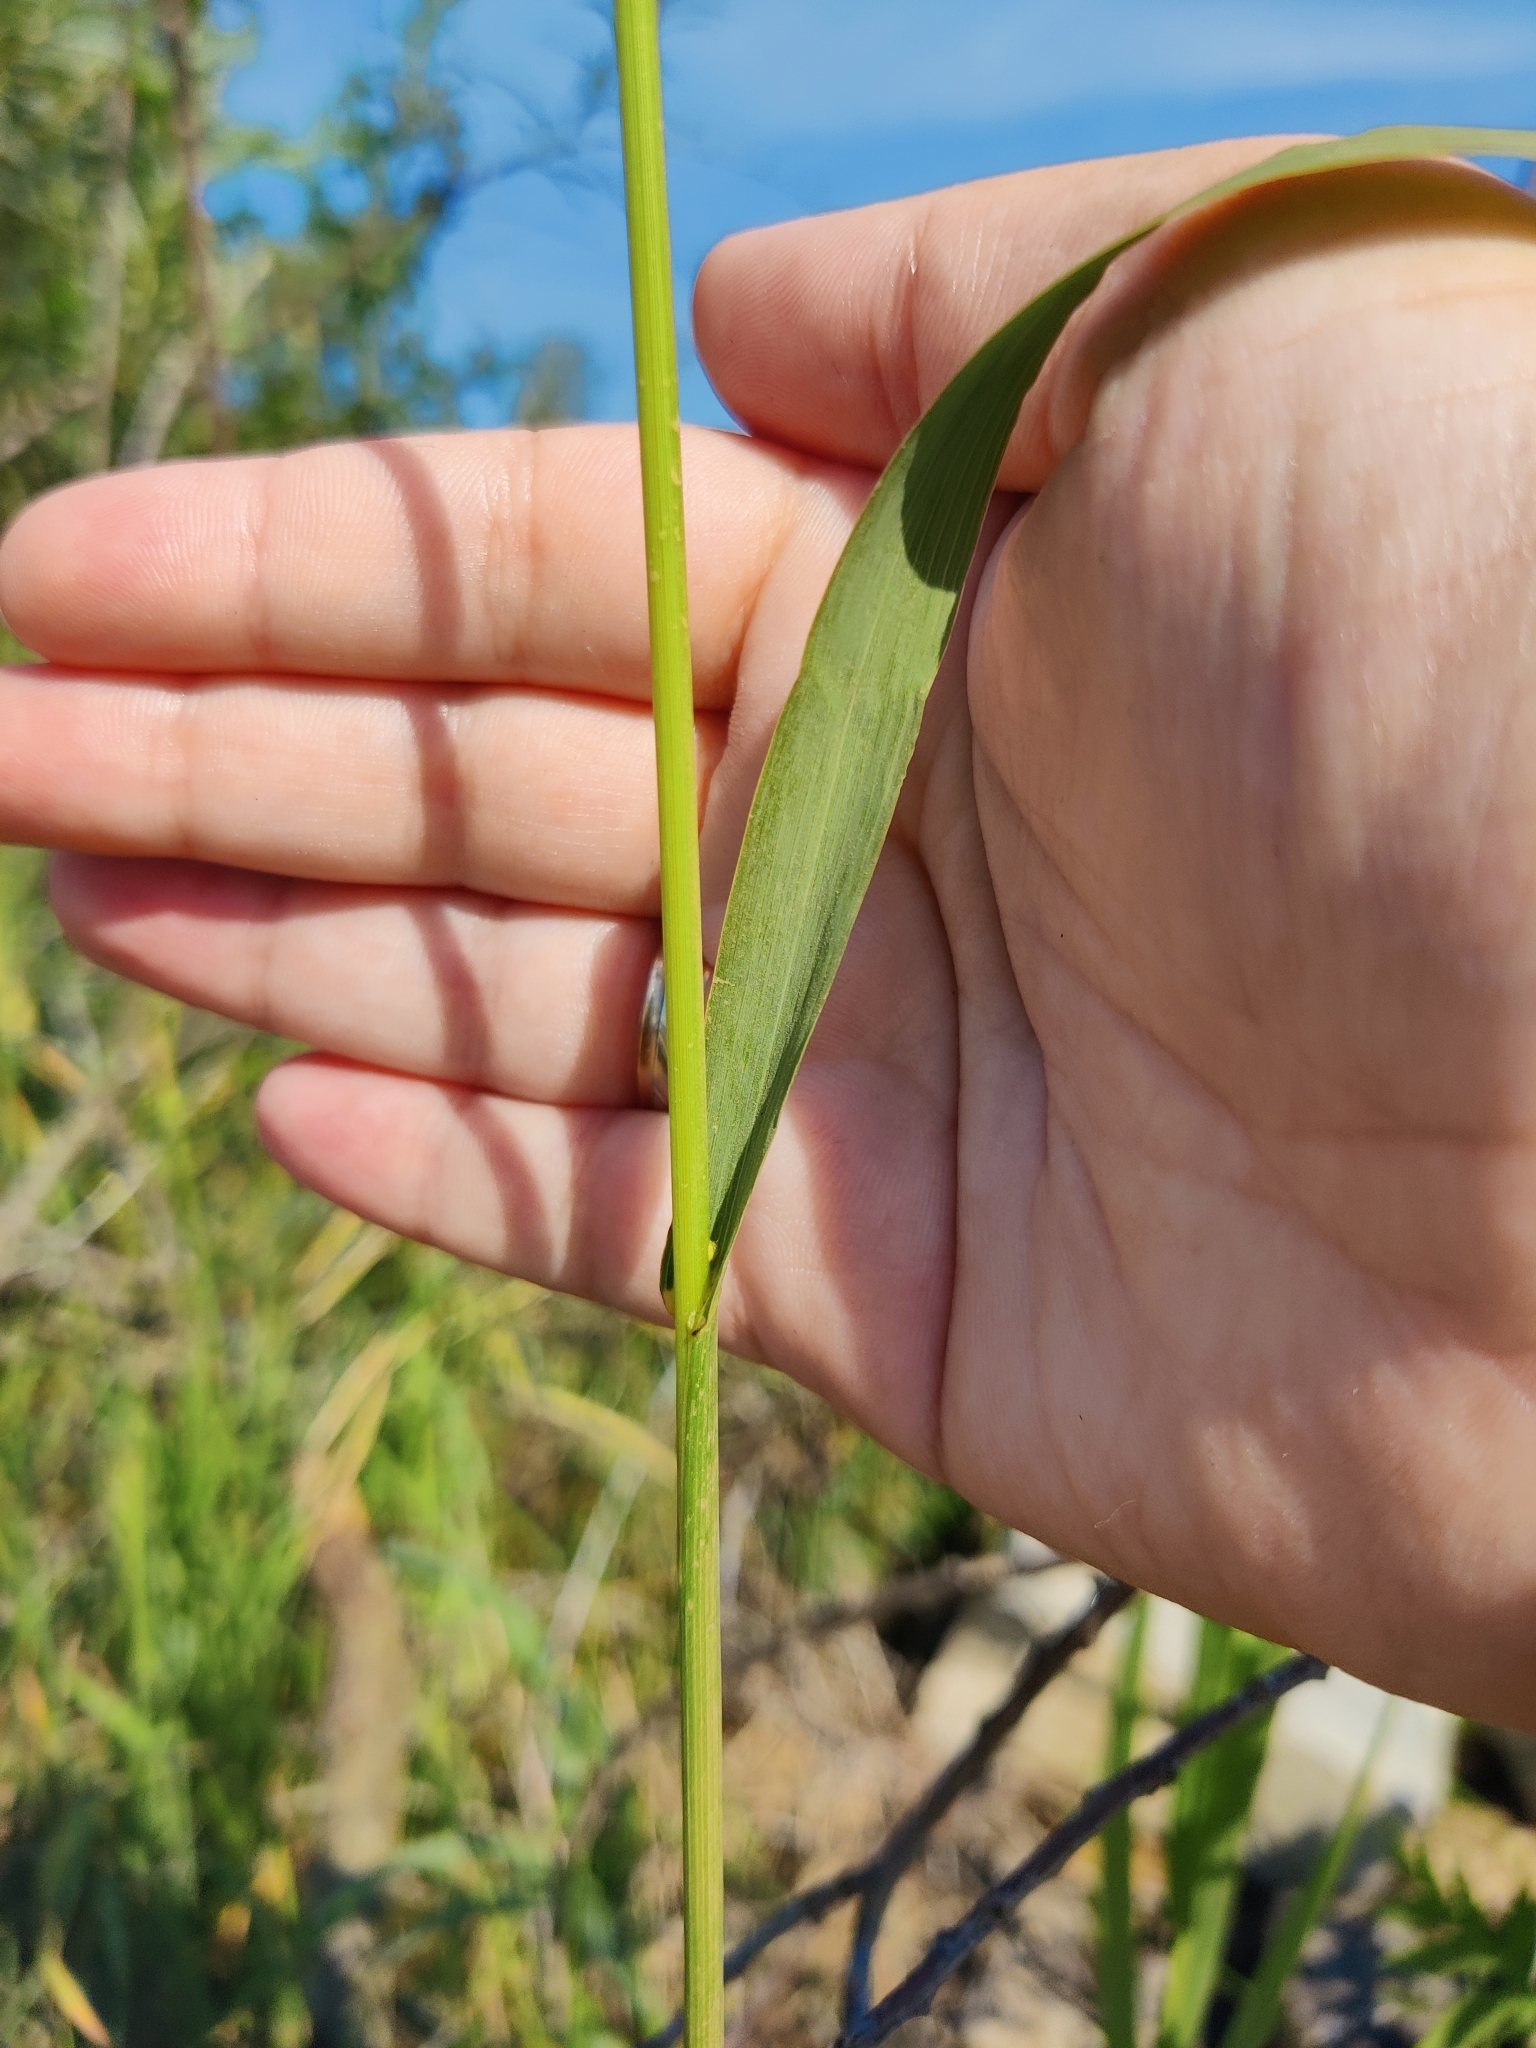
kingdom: Plantae
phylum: Tracheophyta
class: Liliopsida
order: Poales
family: Poaceae
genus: Bromus
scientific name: Bromus inermis
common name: Smooth brome
